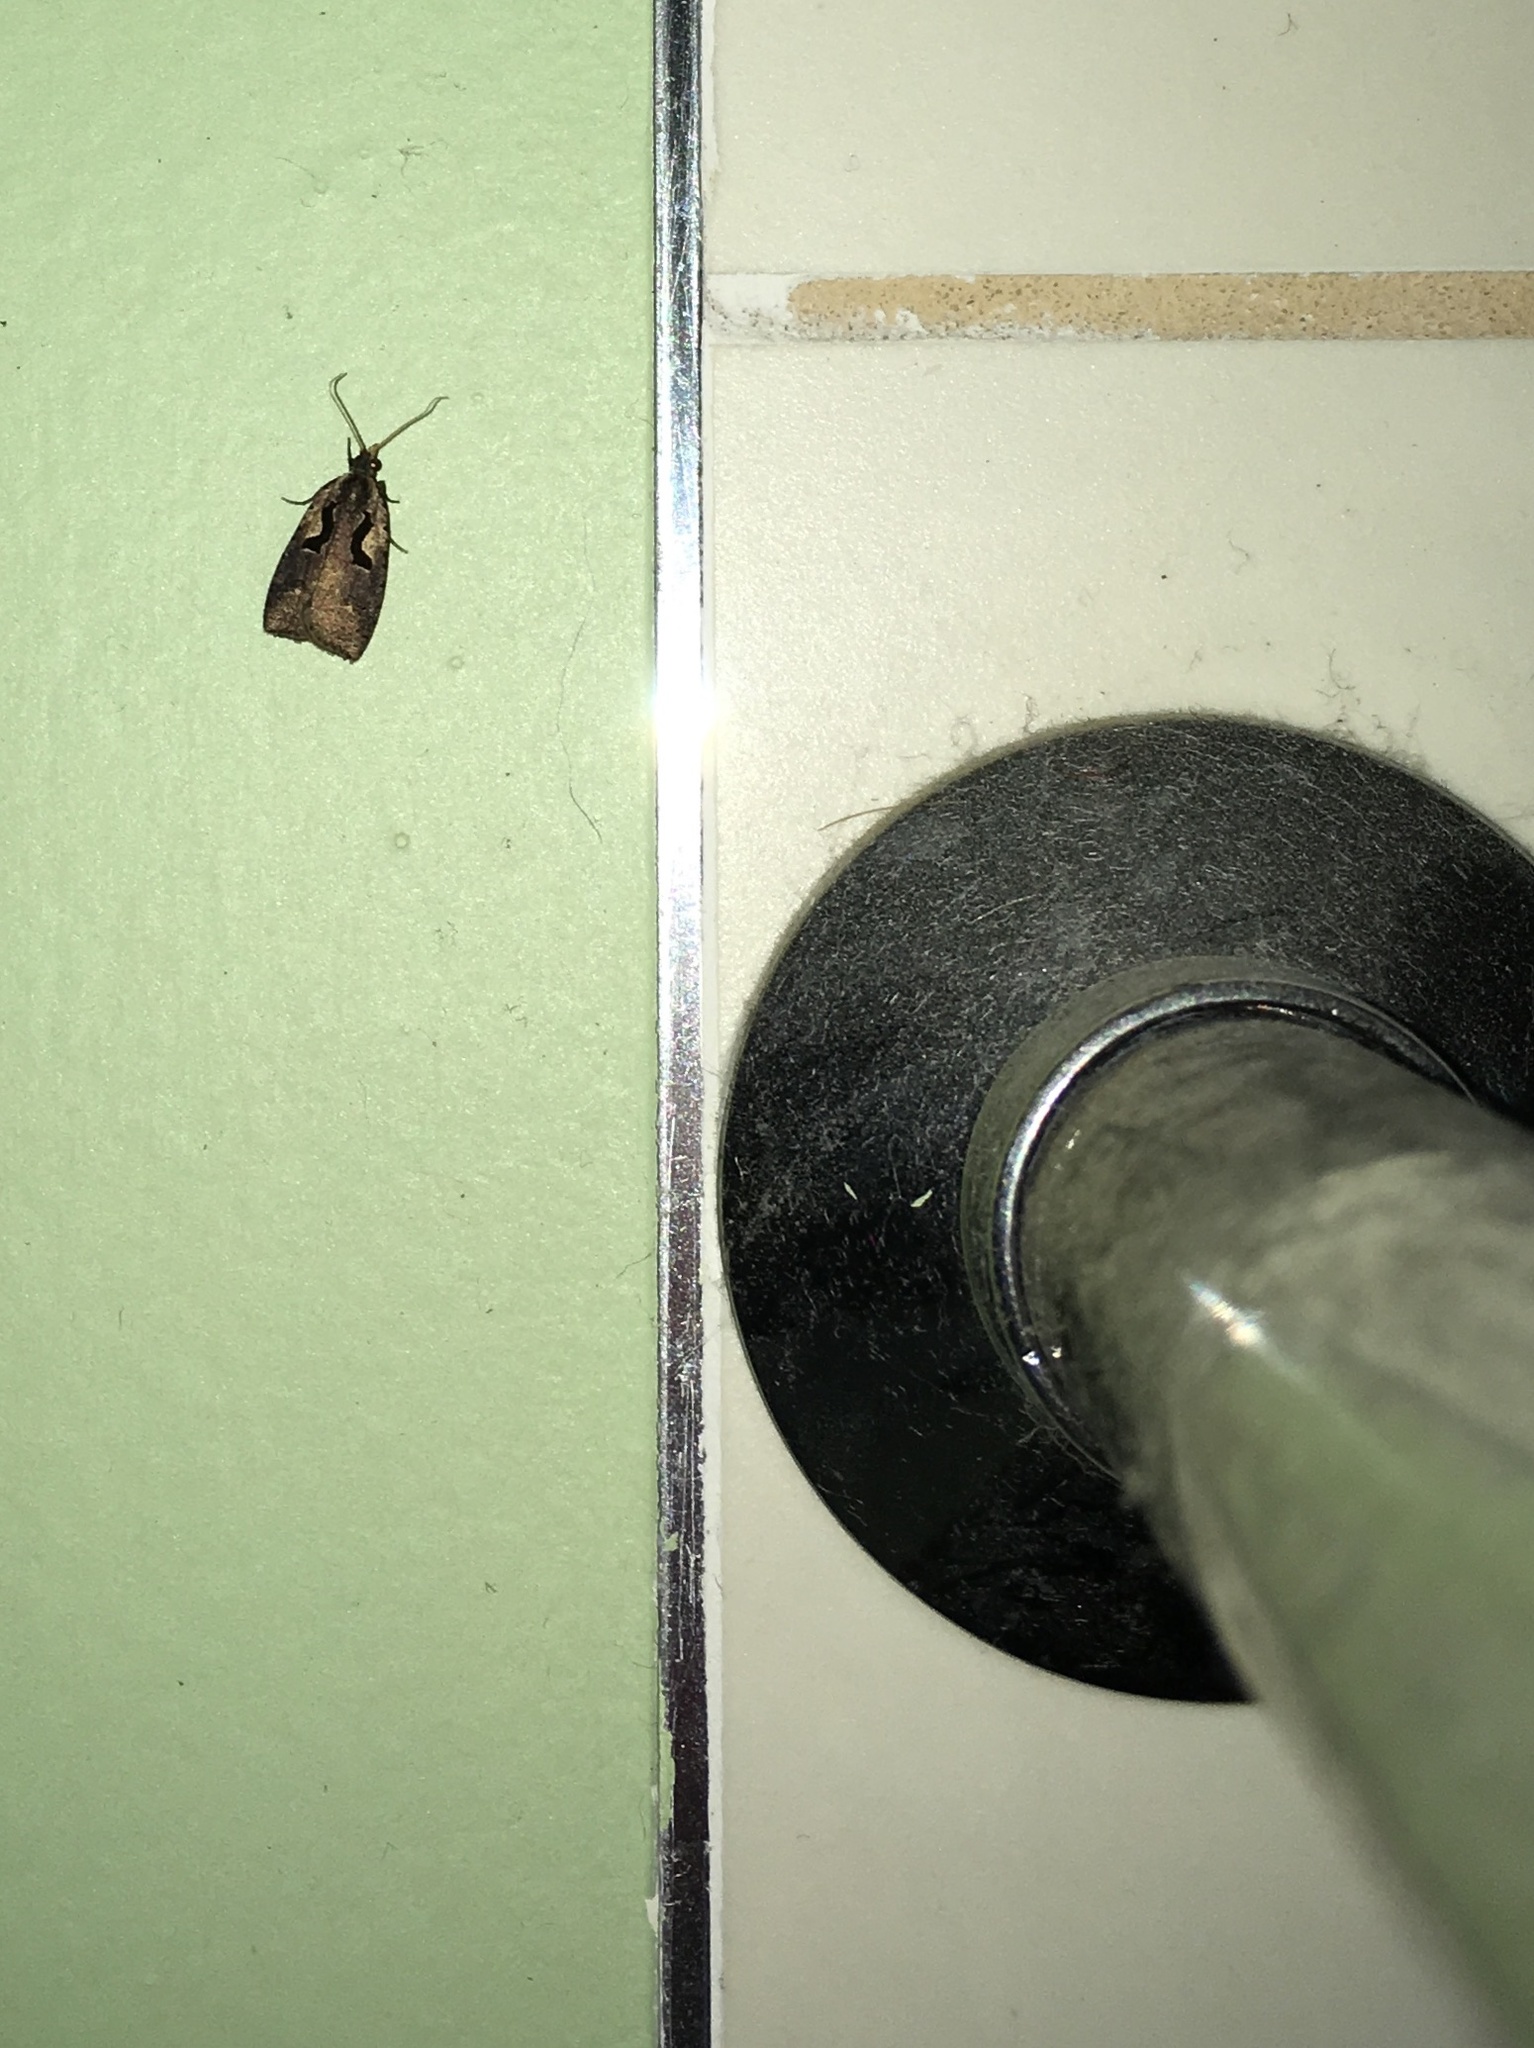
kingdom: Animalia
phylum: Arthropoda
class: Insecta
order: Lepidoptera
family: Tortricidae
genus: Cnephasia
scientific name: Cnephasia jactatana
